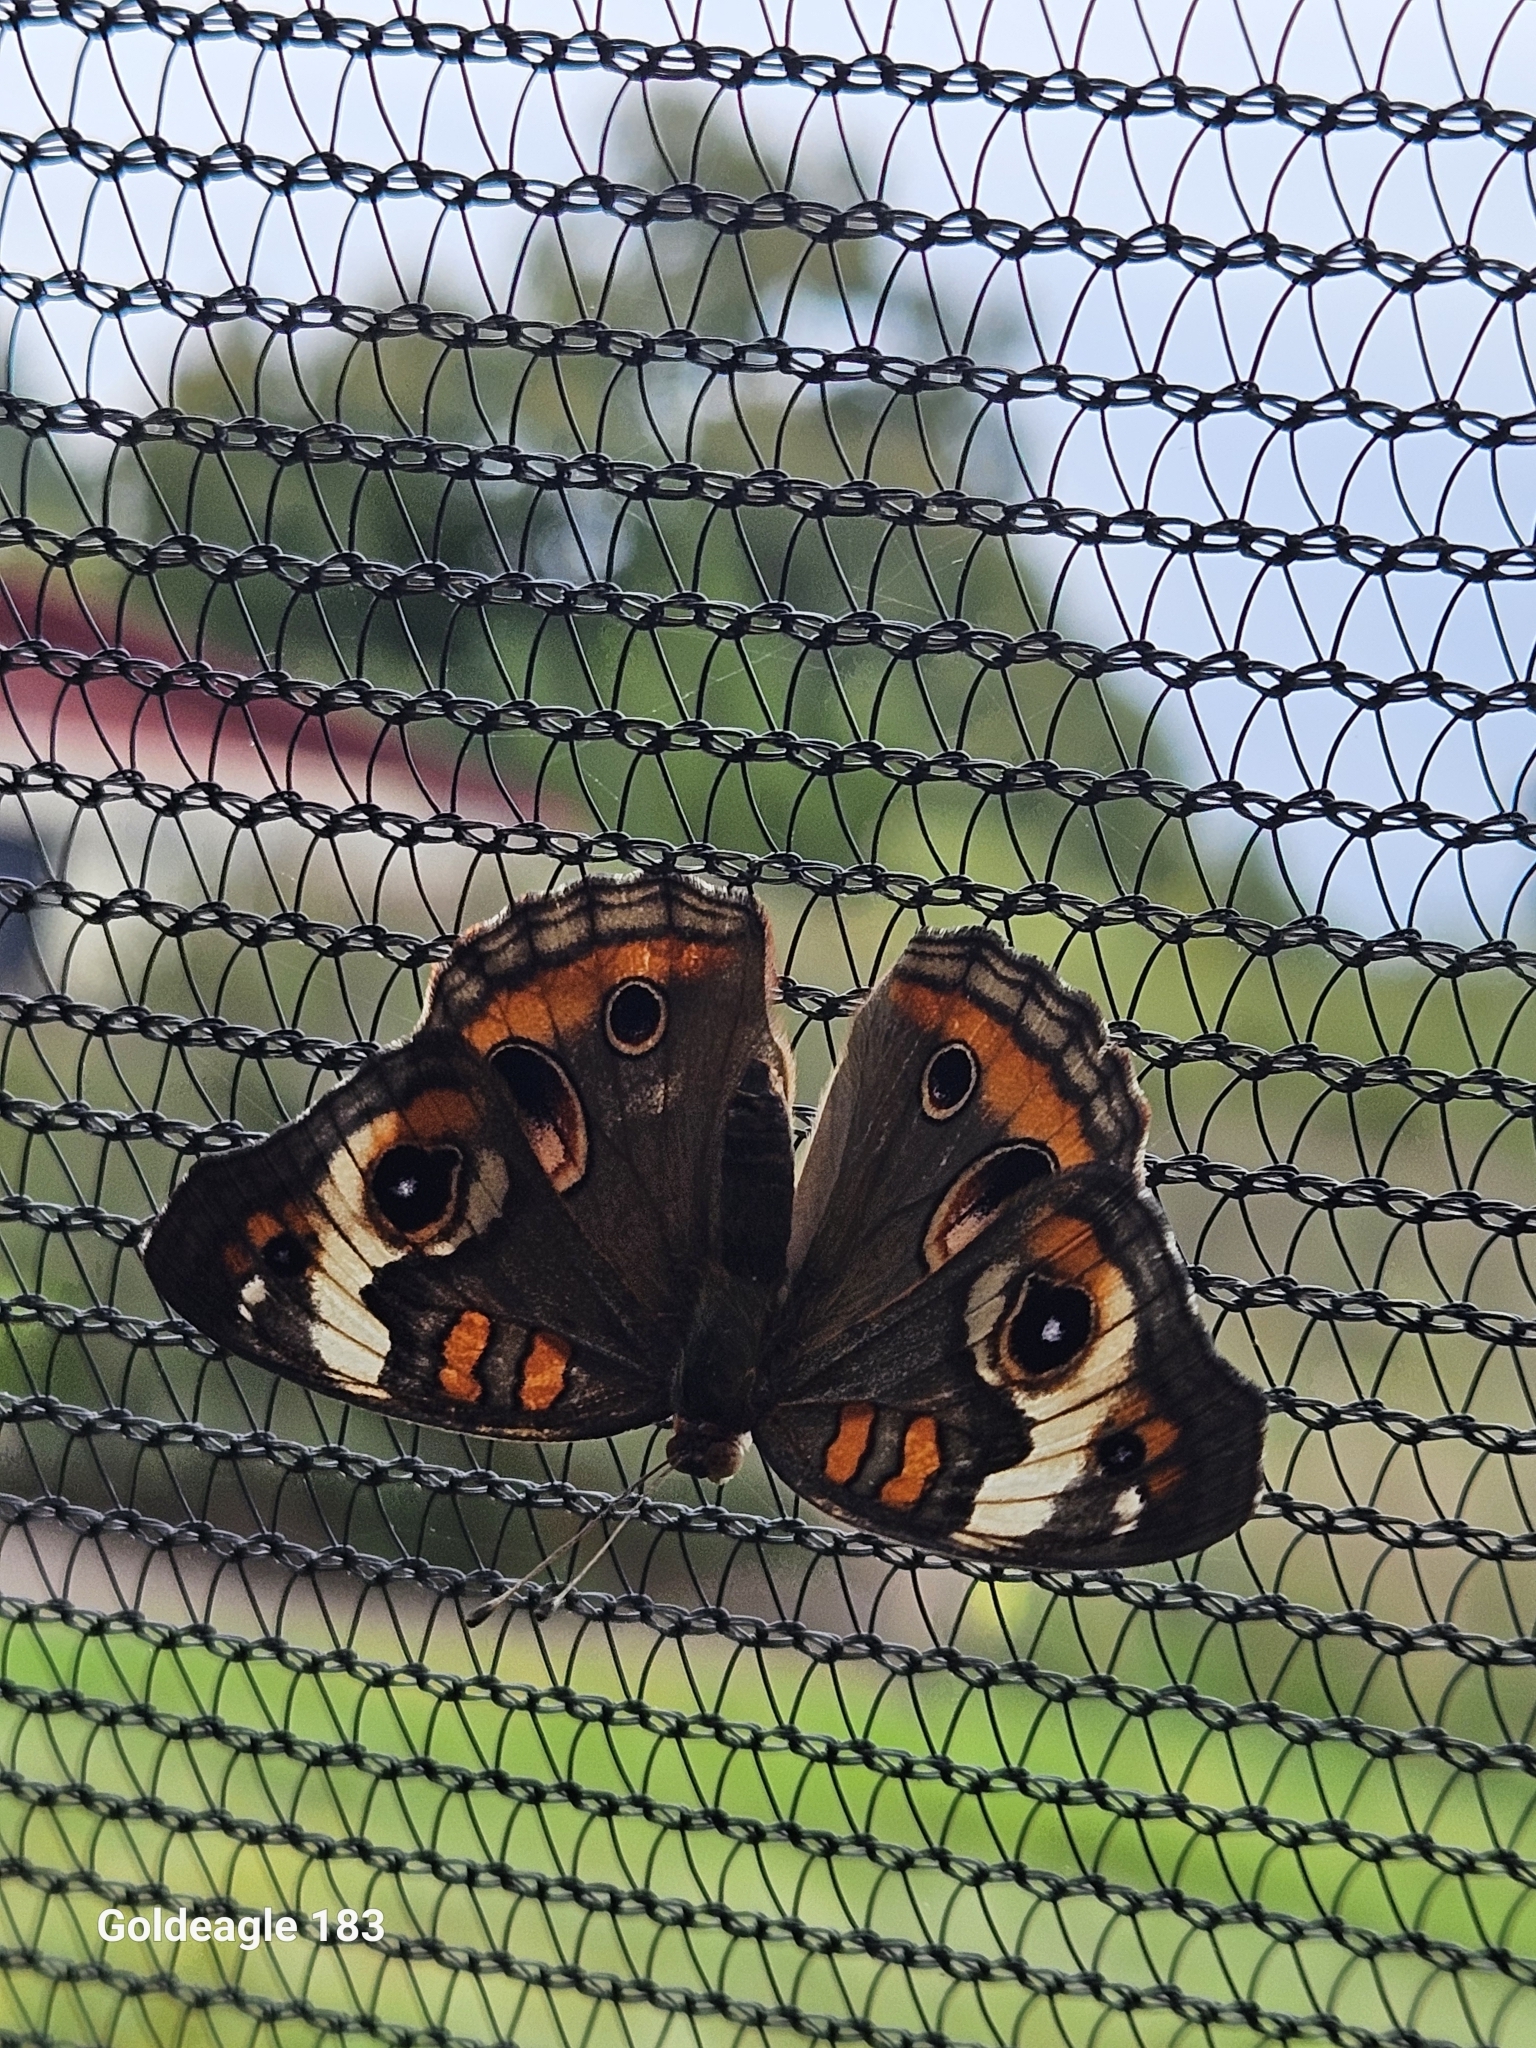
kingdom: Animalia
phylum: Arthropoda
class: Insecta
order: Lepidoptera
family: Nymphalidae
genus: Junonia
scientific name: Junonia coenia
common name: Common buckeye
